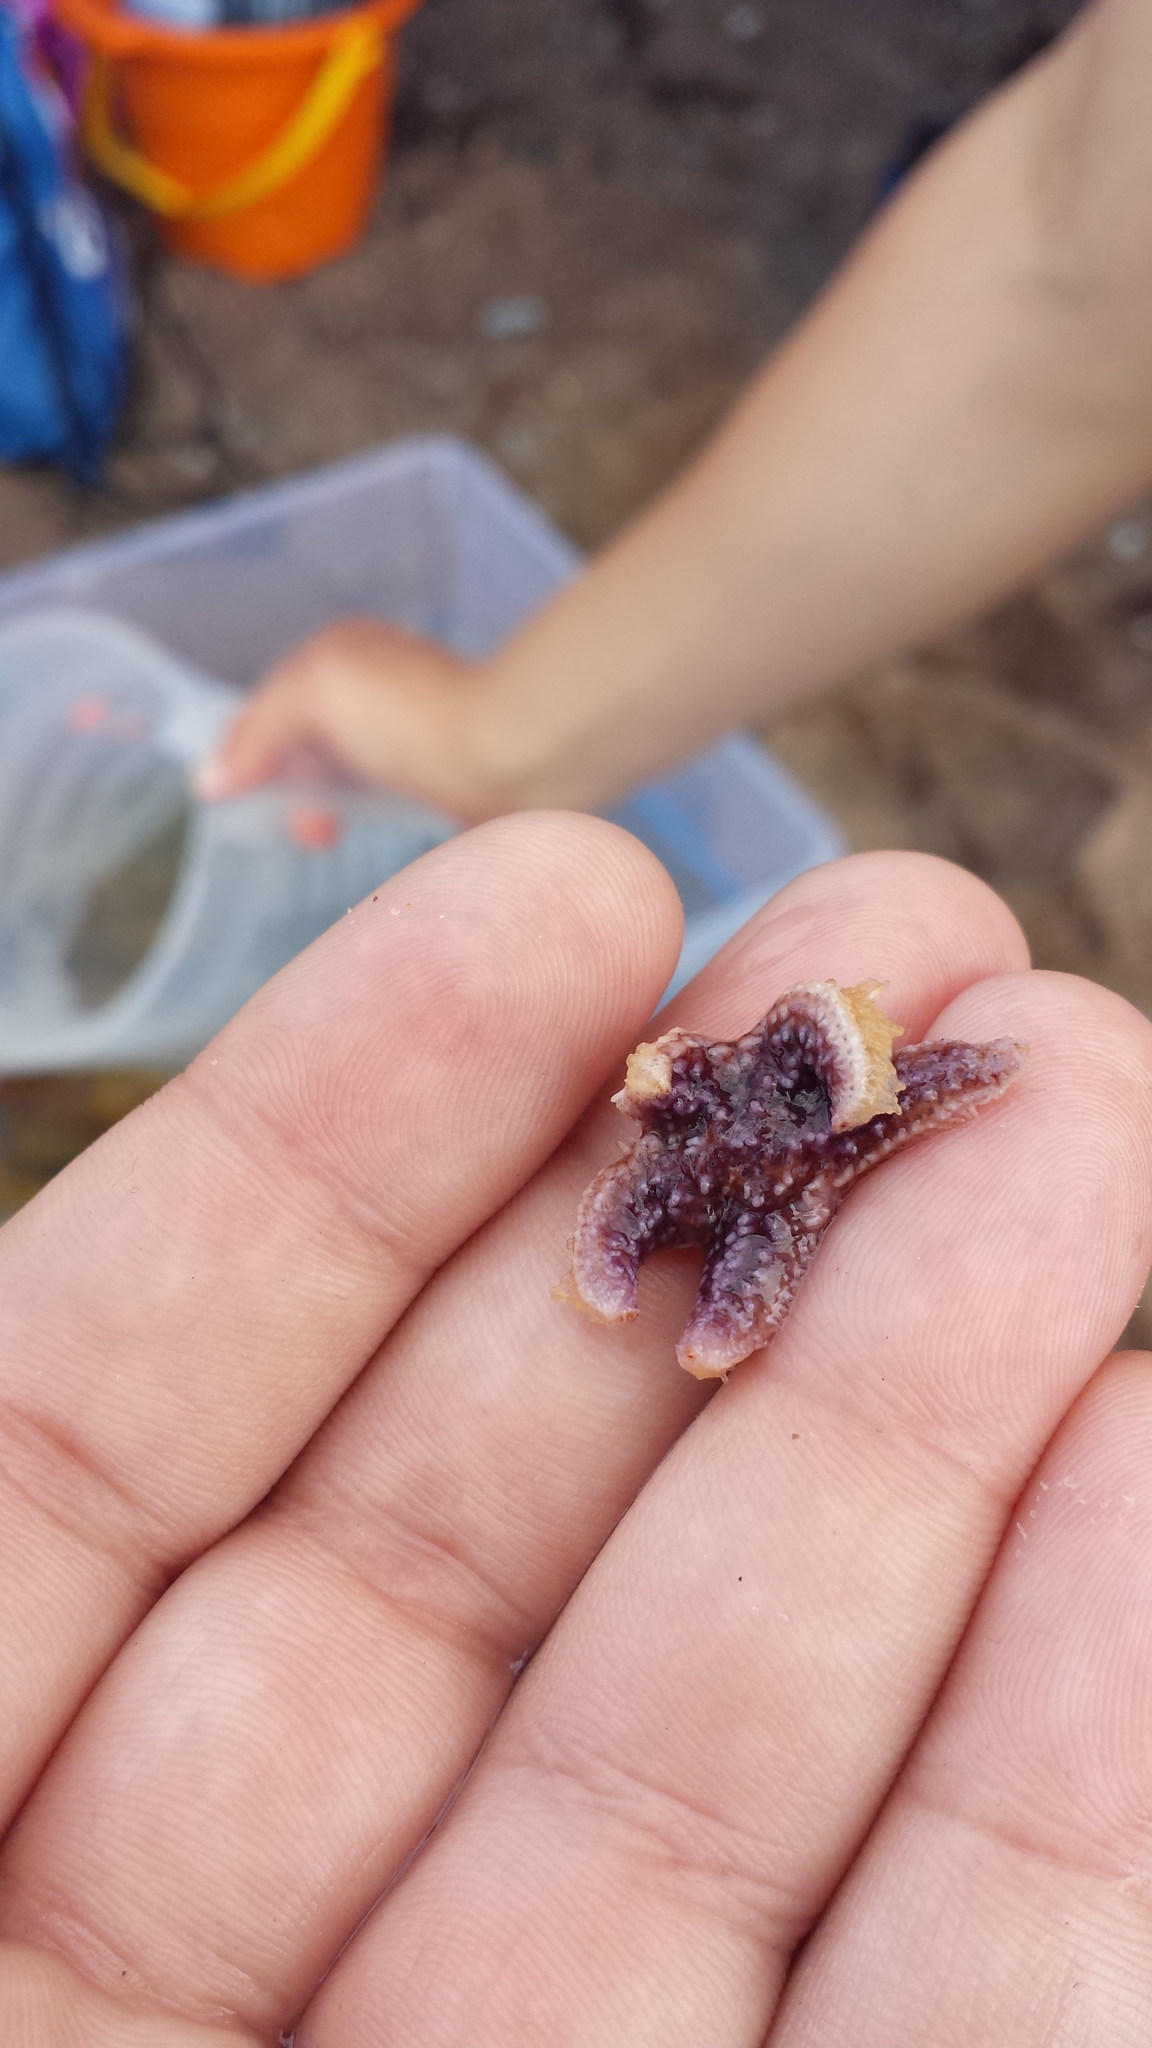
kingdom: Animalia
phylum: Echinodermata
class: Asteroidea
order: Forcipulatida
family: Asteriidae
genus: Asterias
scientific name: Asterias rubens
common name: Common starfish
